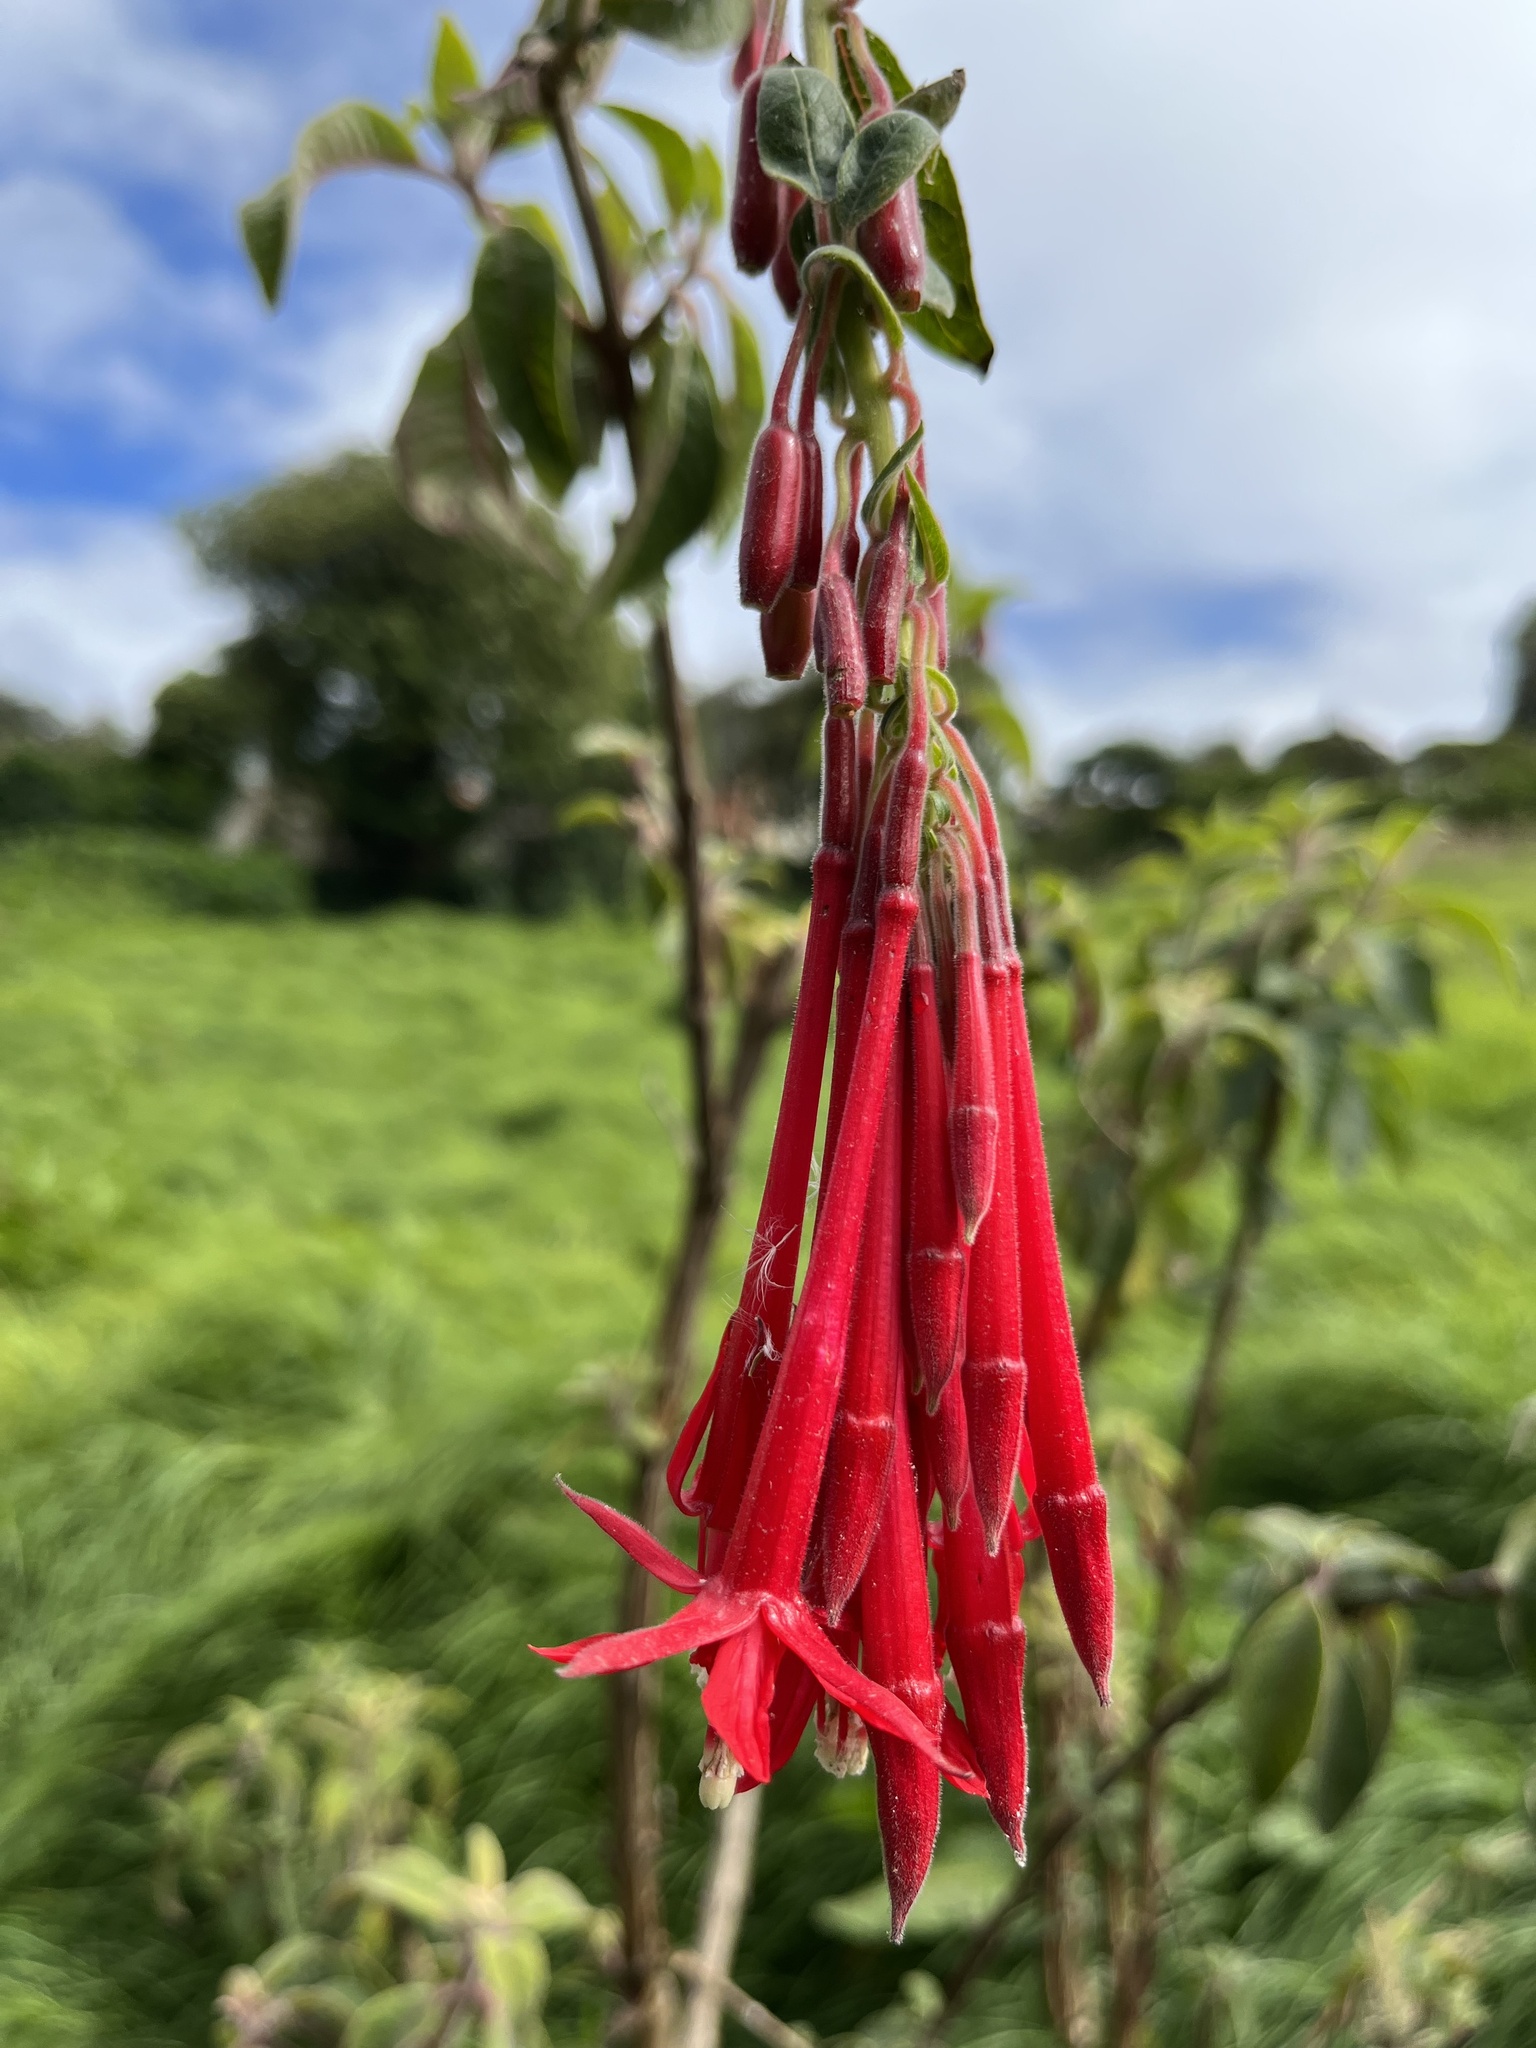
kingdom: Plantae
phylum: Tracheophyta
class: Magnoliopsida
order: Myrtales
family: Onagraceae
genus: Fuchsia
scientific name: Fuchsia boliviana
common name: Bolivian fuchsia
